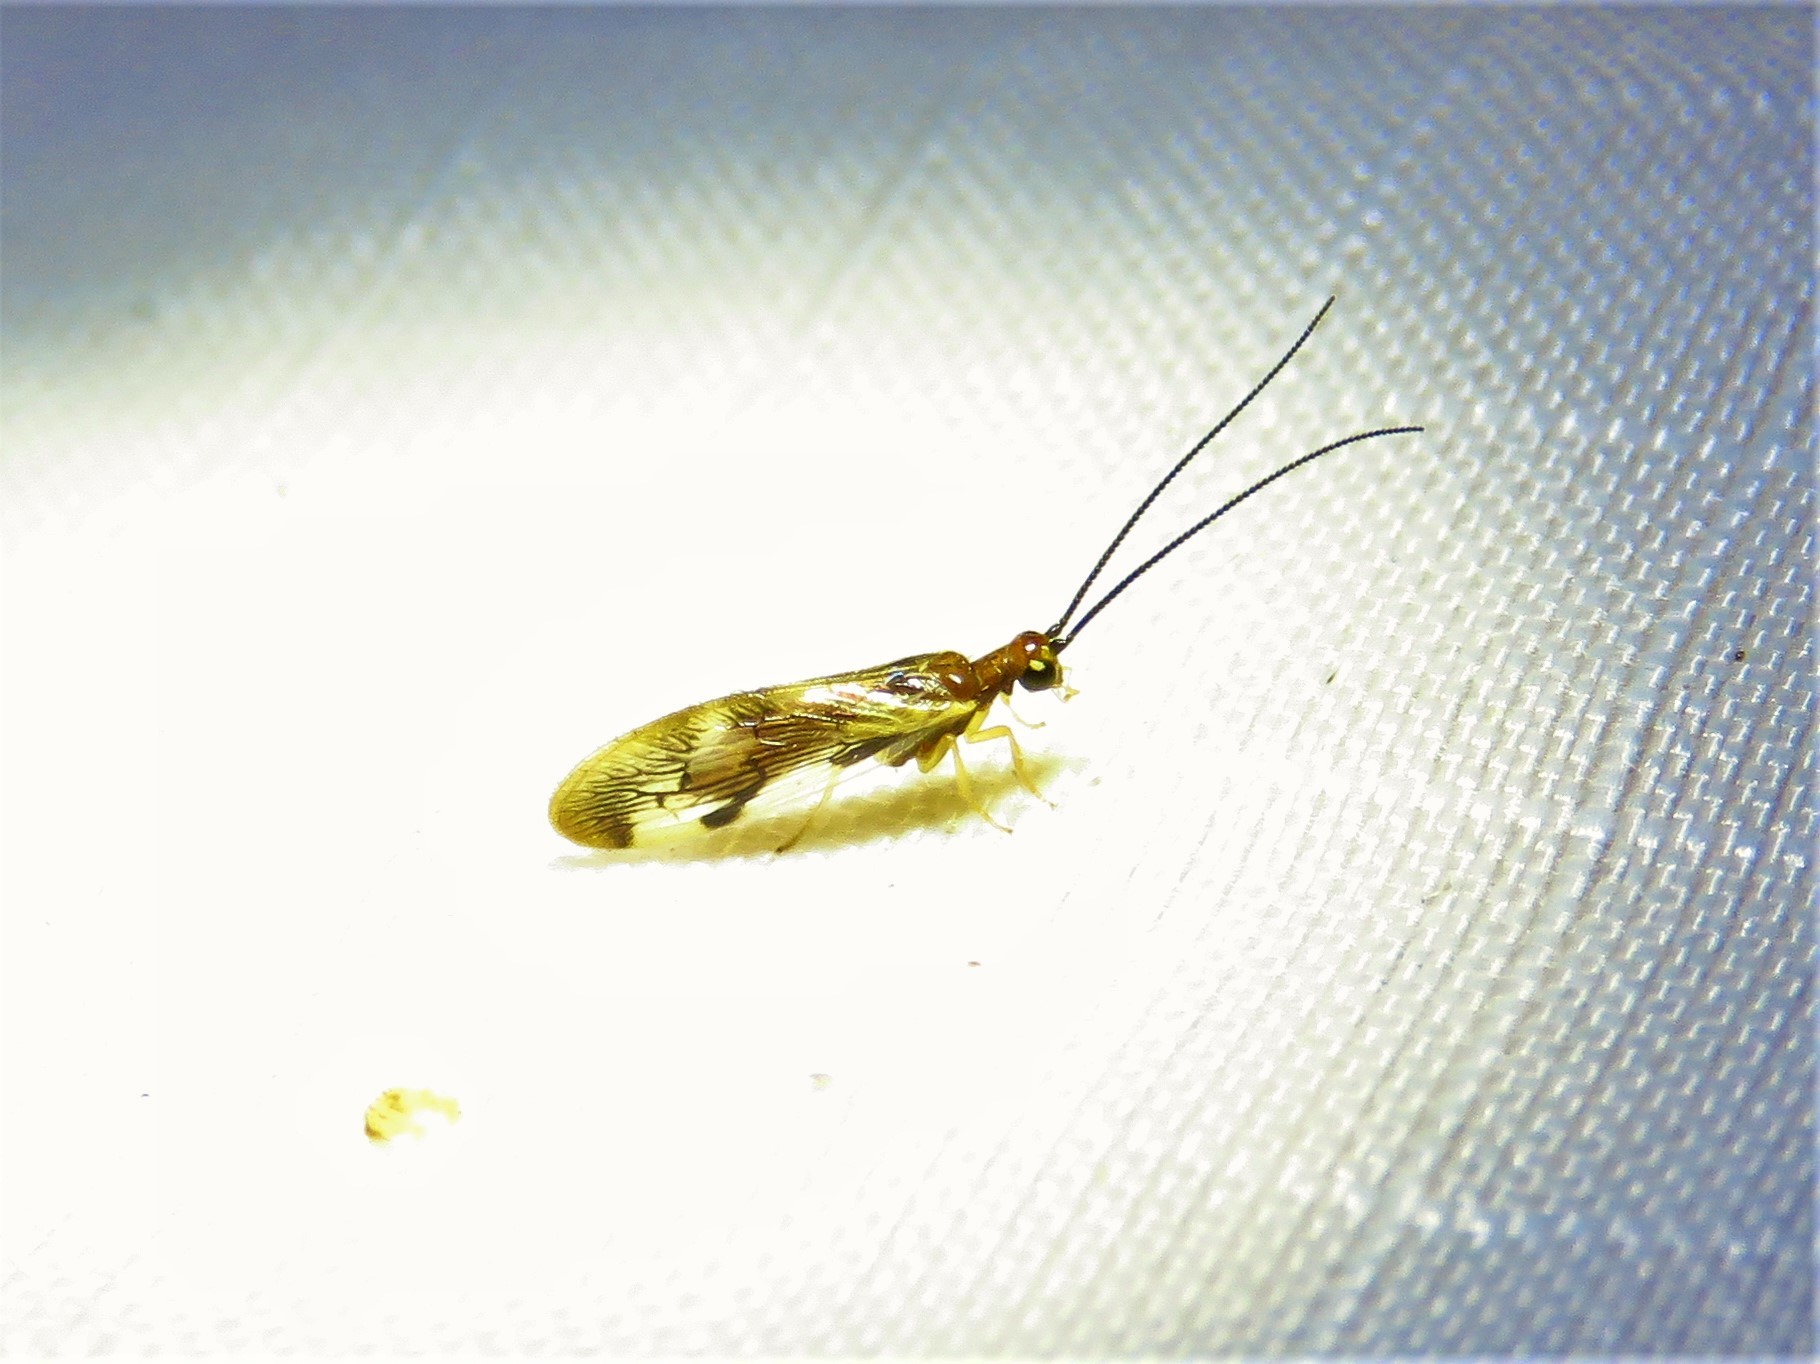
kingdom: Animalia
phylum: Arthropoda
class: Insecta
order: Neuroptera
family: Sisyridae
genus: Climacia
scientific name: Climacia areolaris
